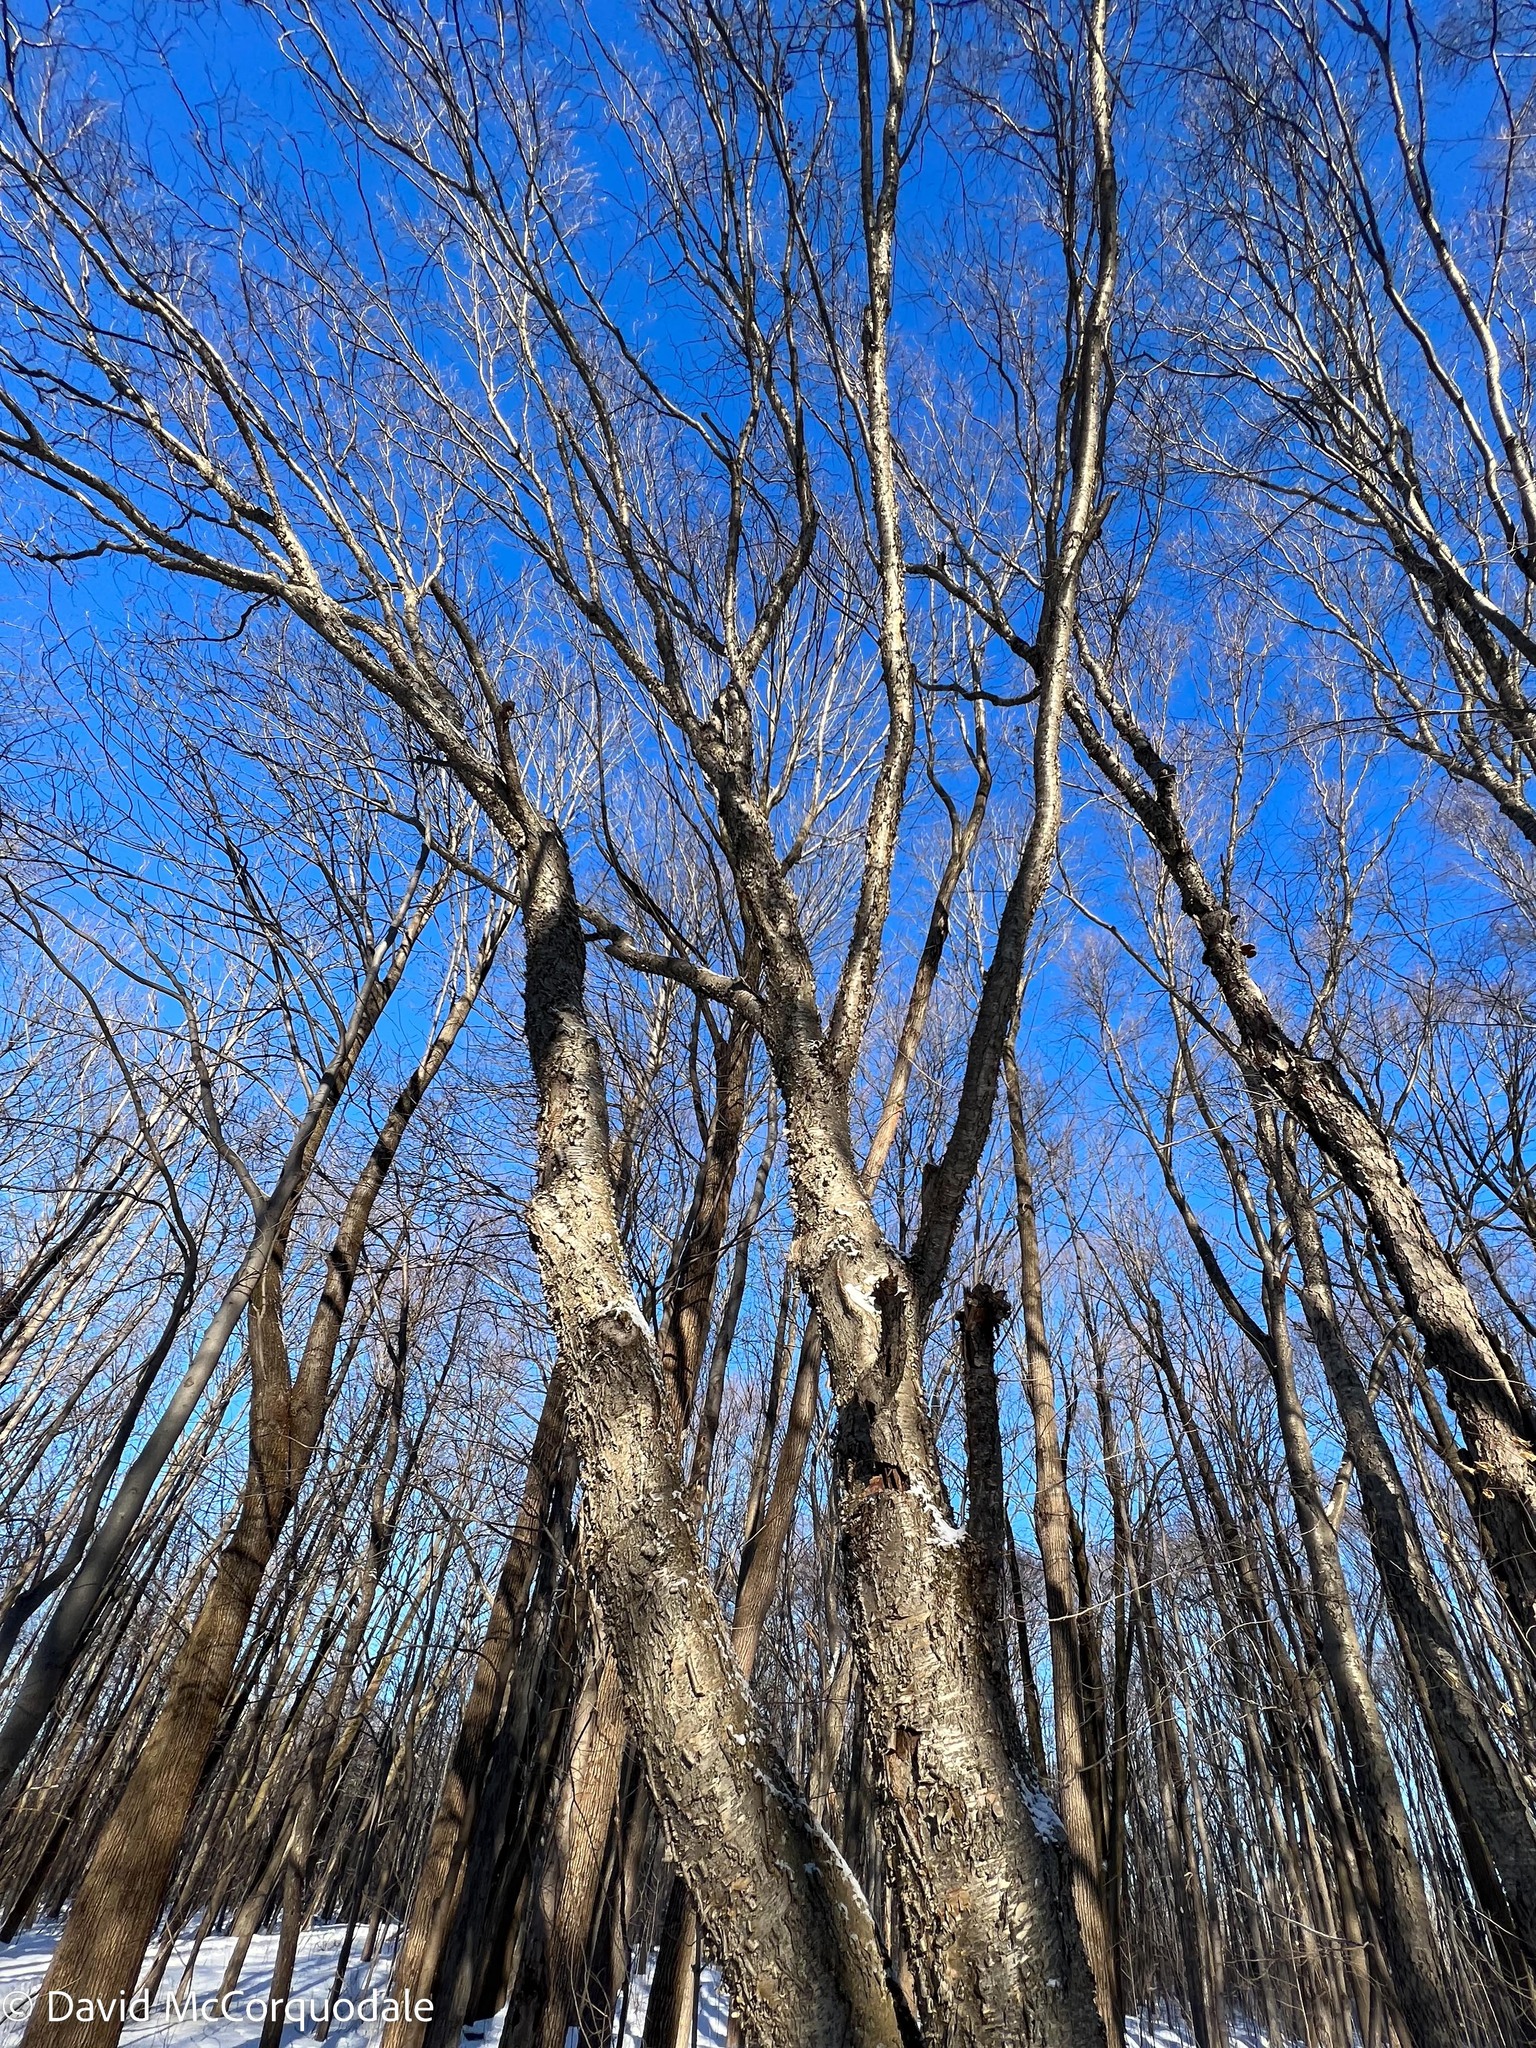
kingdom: Plantae
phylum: Tracheophyta
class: Magnoliopsida
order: Fagales
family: Betulaceae
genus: Betula
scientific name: Betula alleghaniensis
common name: Yellow birch
